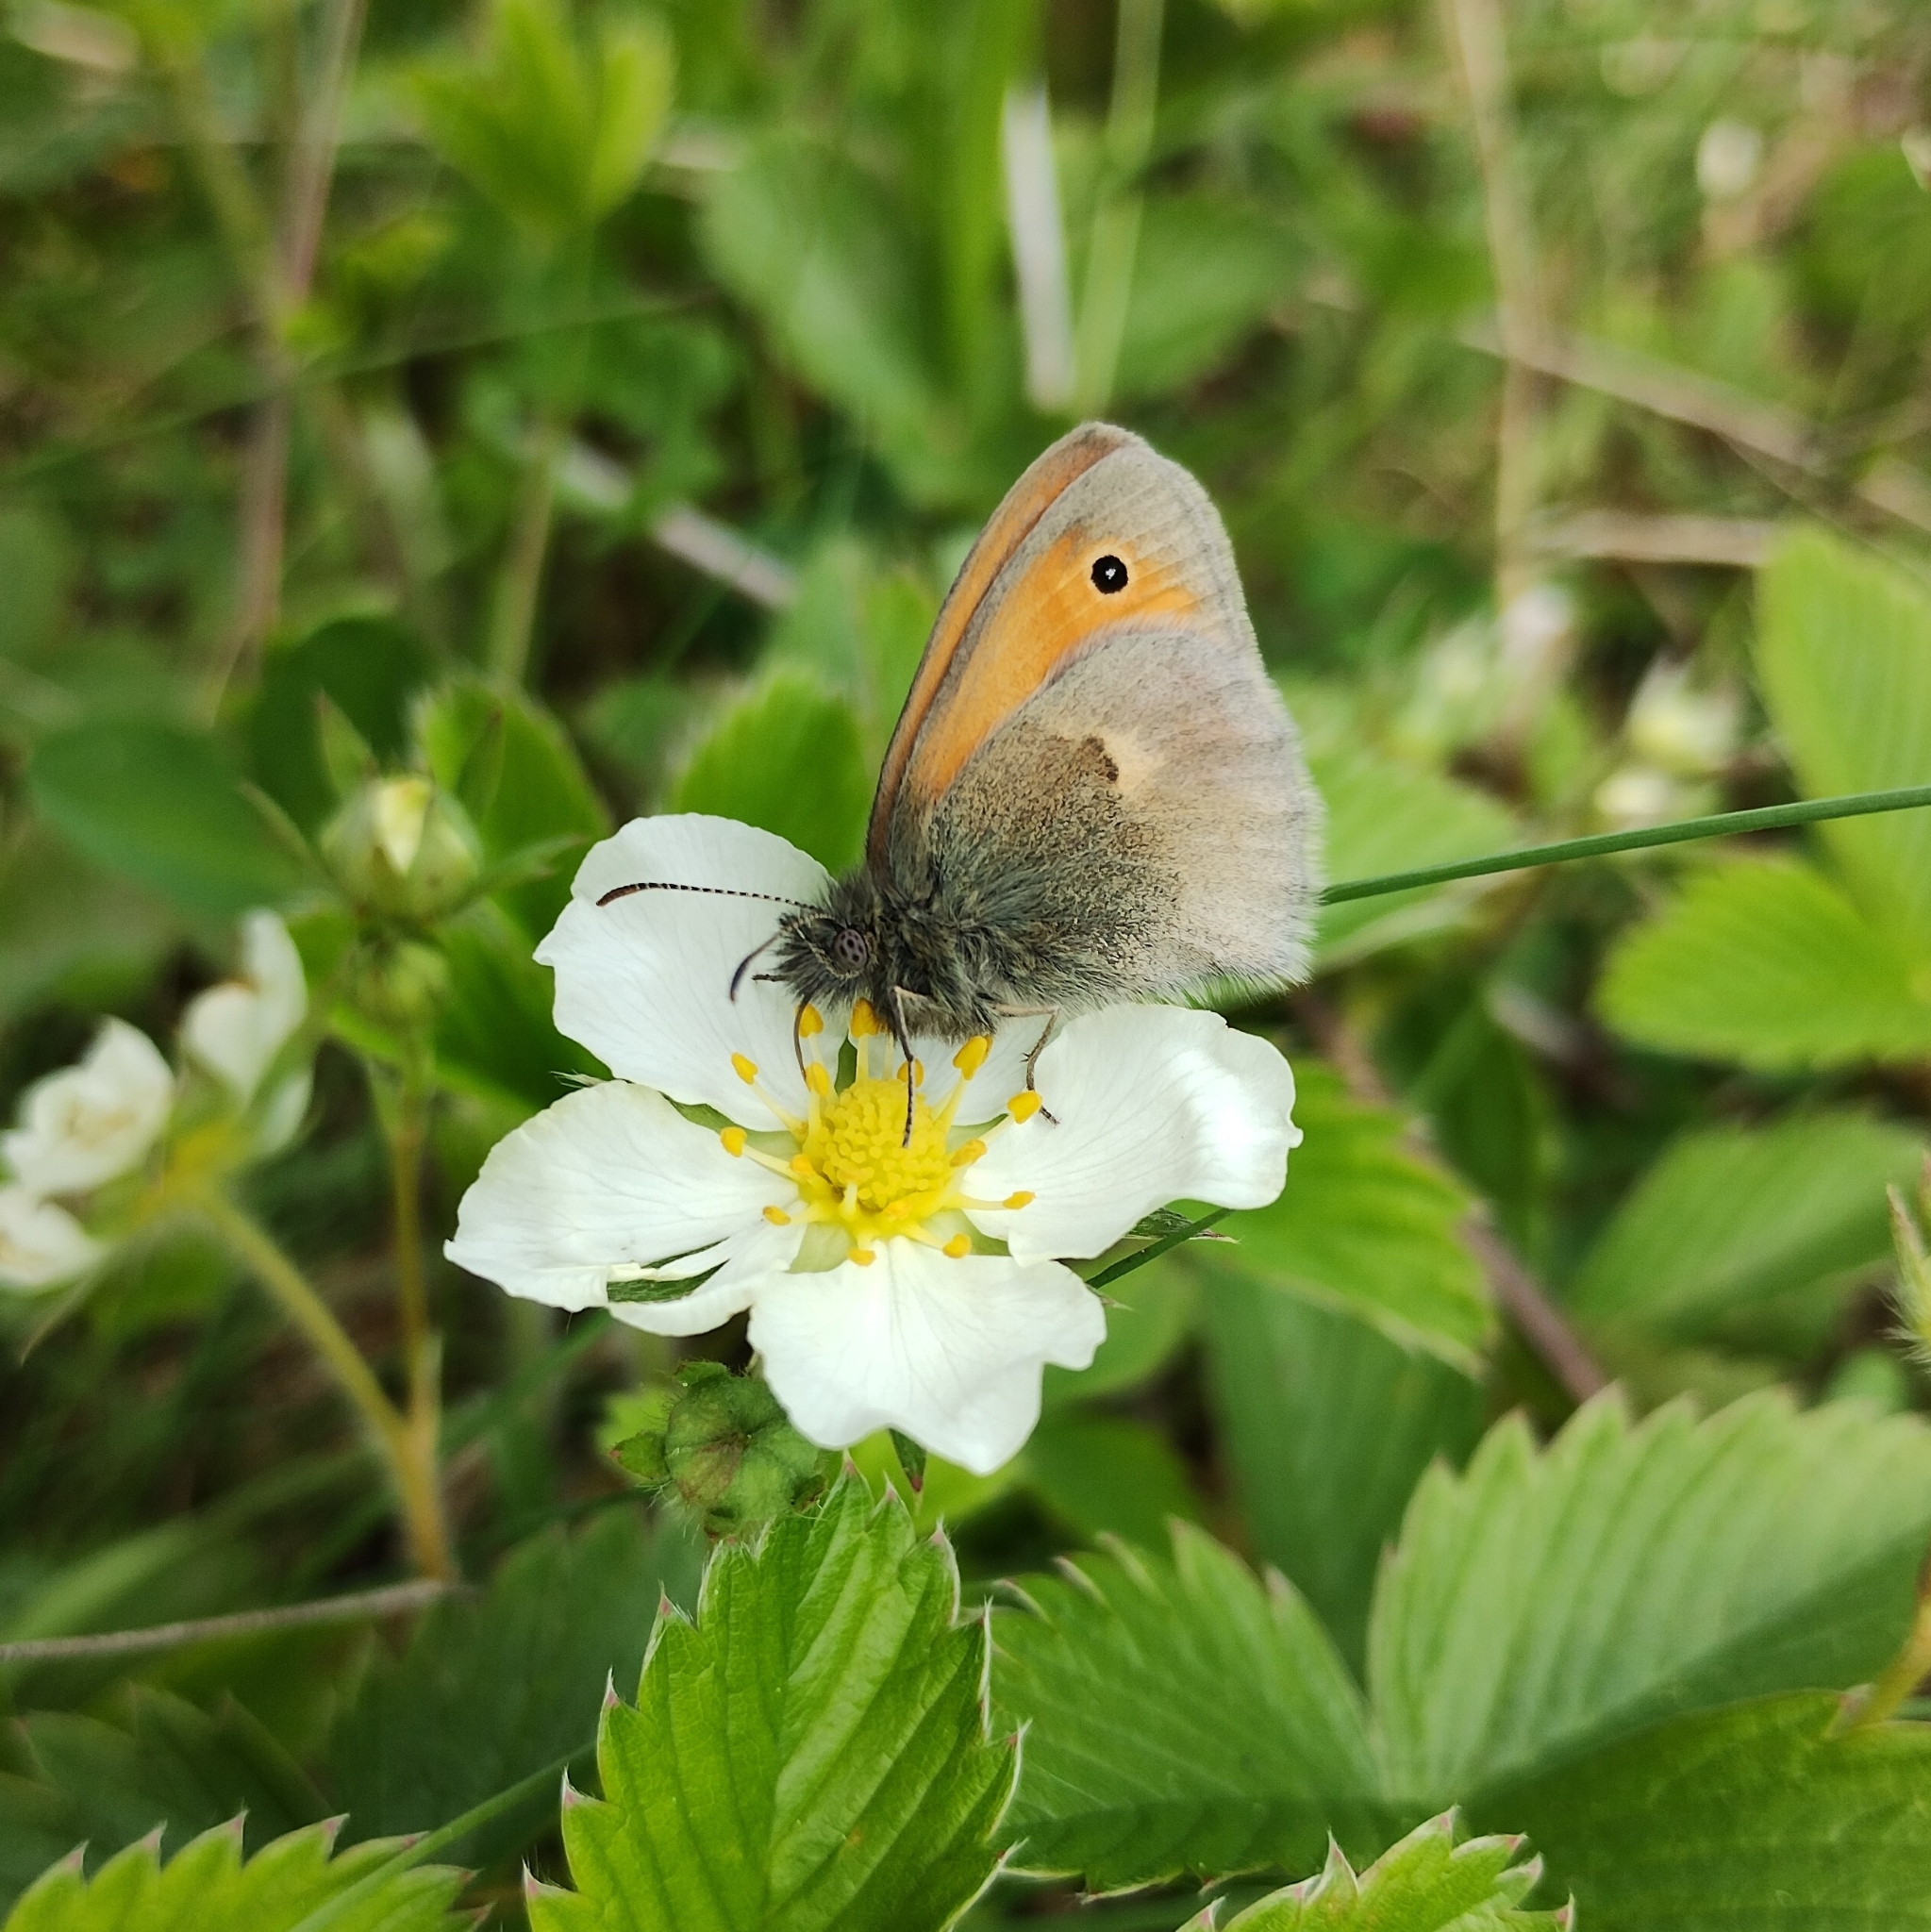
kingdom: Animalia
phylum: Arthropoda
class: Insecta
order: Lepidoptera
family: Nymphalidae
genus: Coenonympha
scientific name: Coenonympha pamphilus
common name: Small heath
